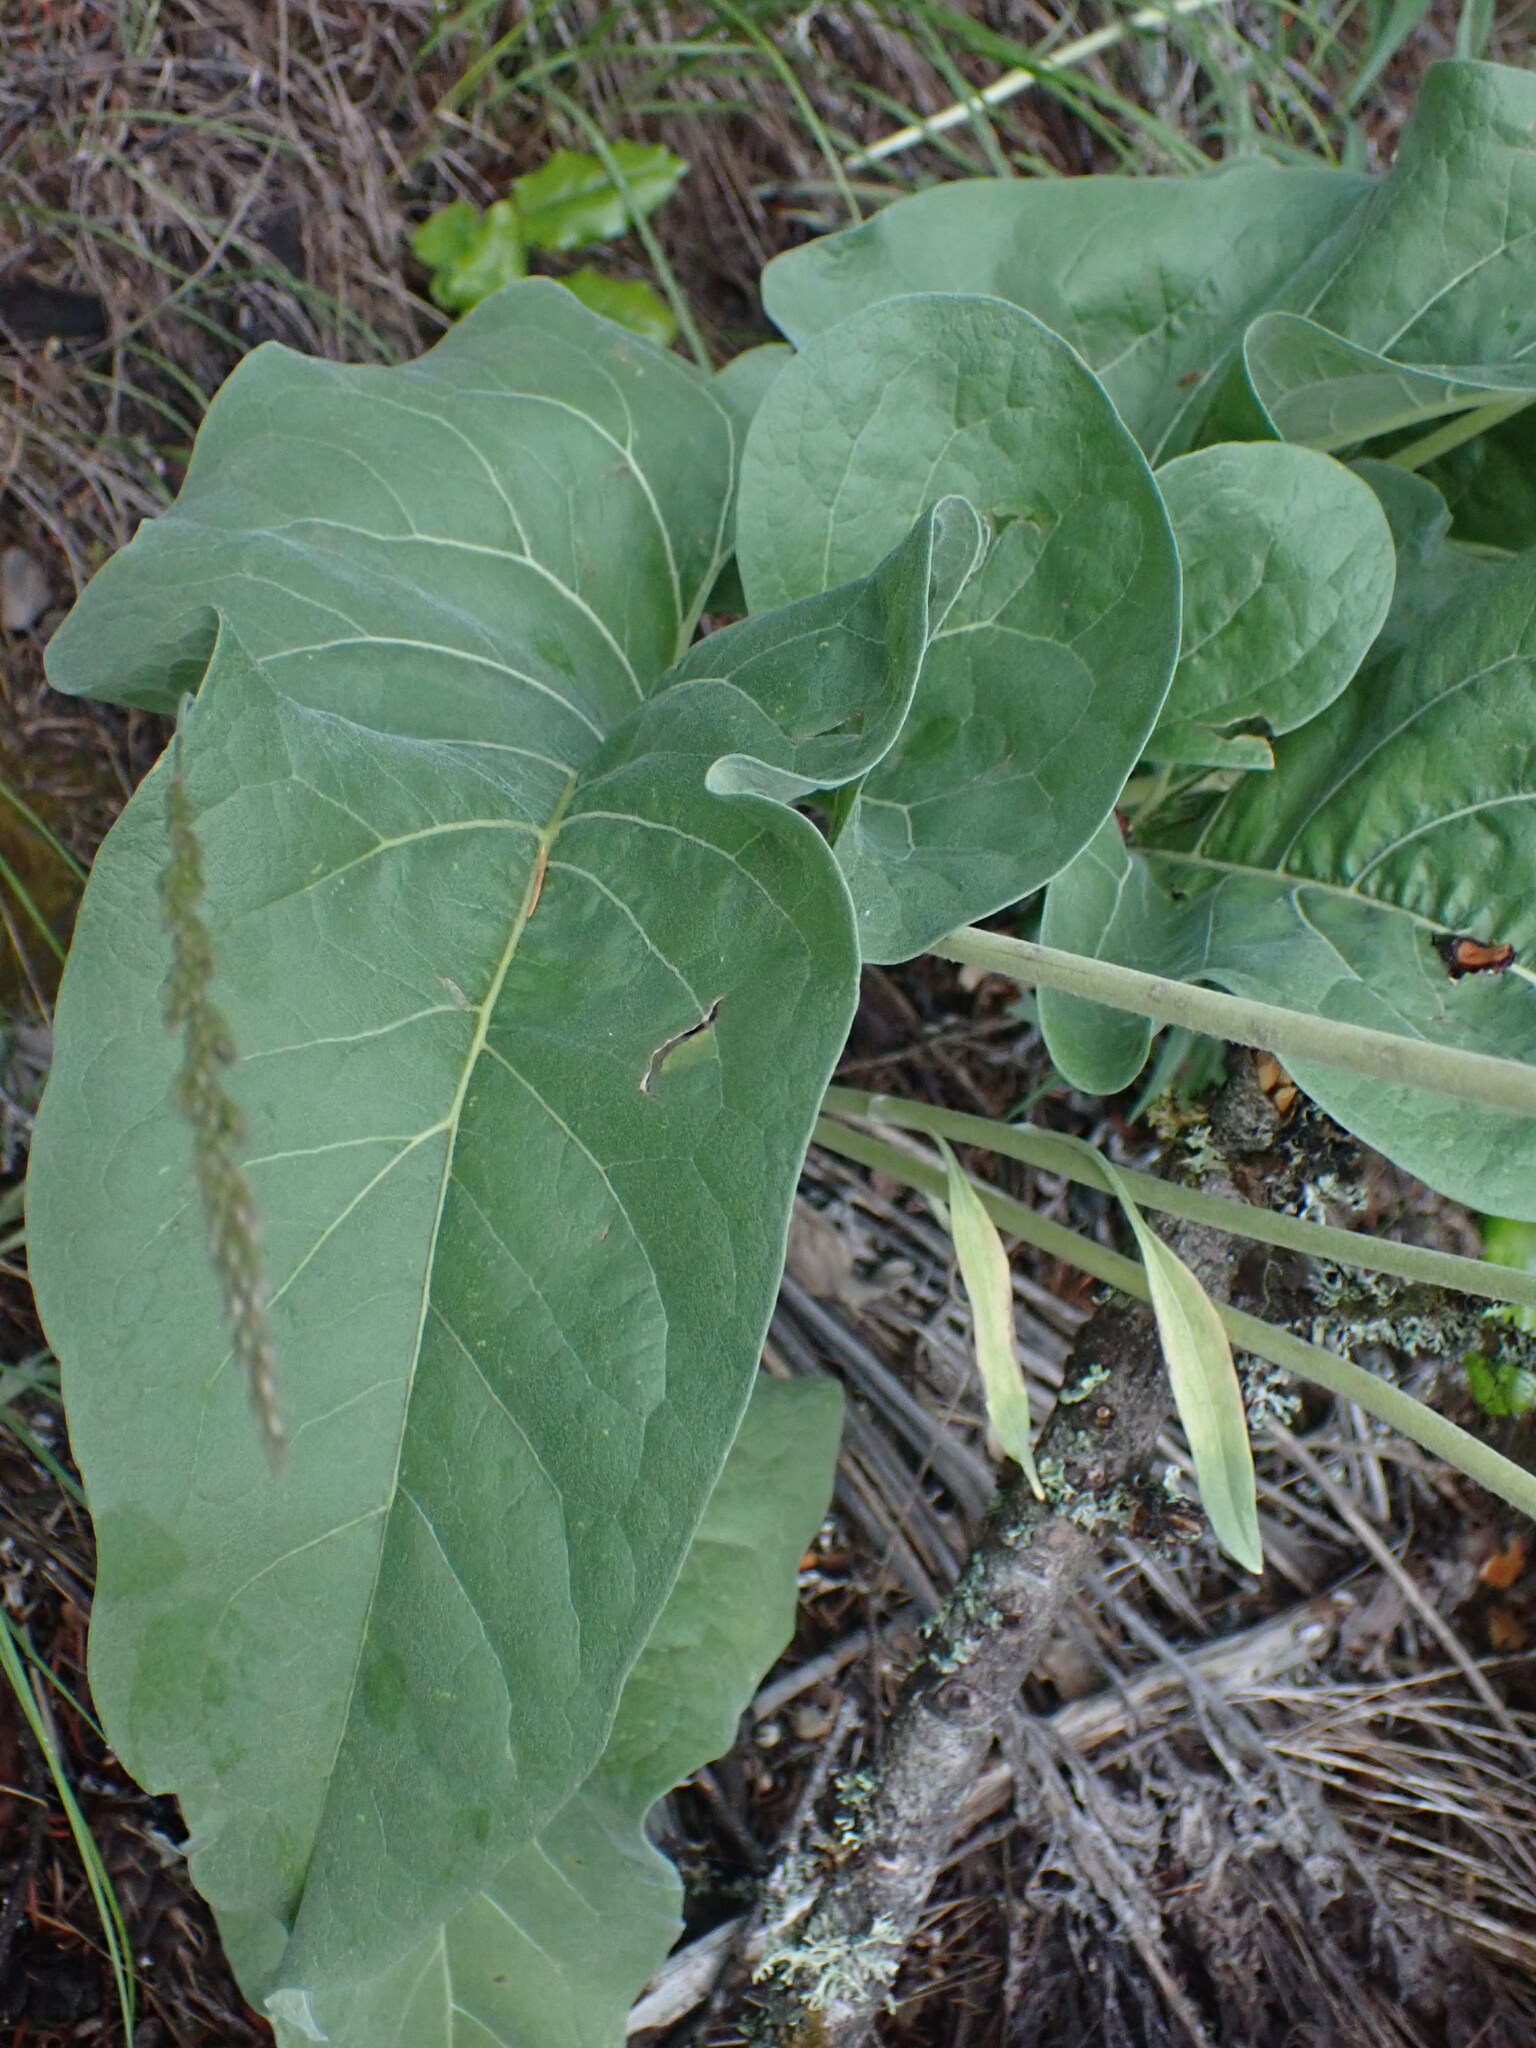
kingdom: Plantae
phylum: Tracheophyta
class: Magnoliopsida
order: Asterales
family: Asteraceae
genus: Wyethia
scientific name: Wyethia sagittata
